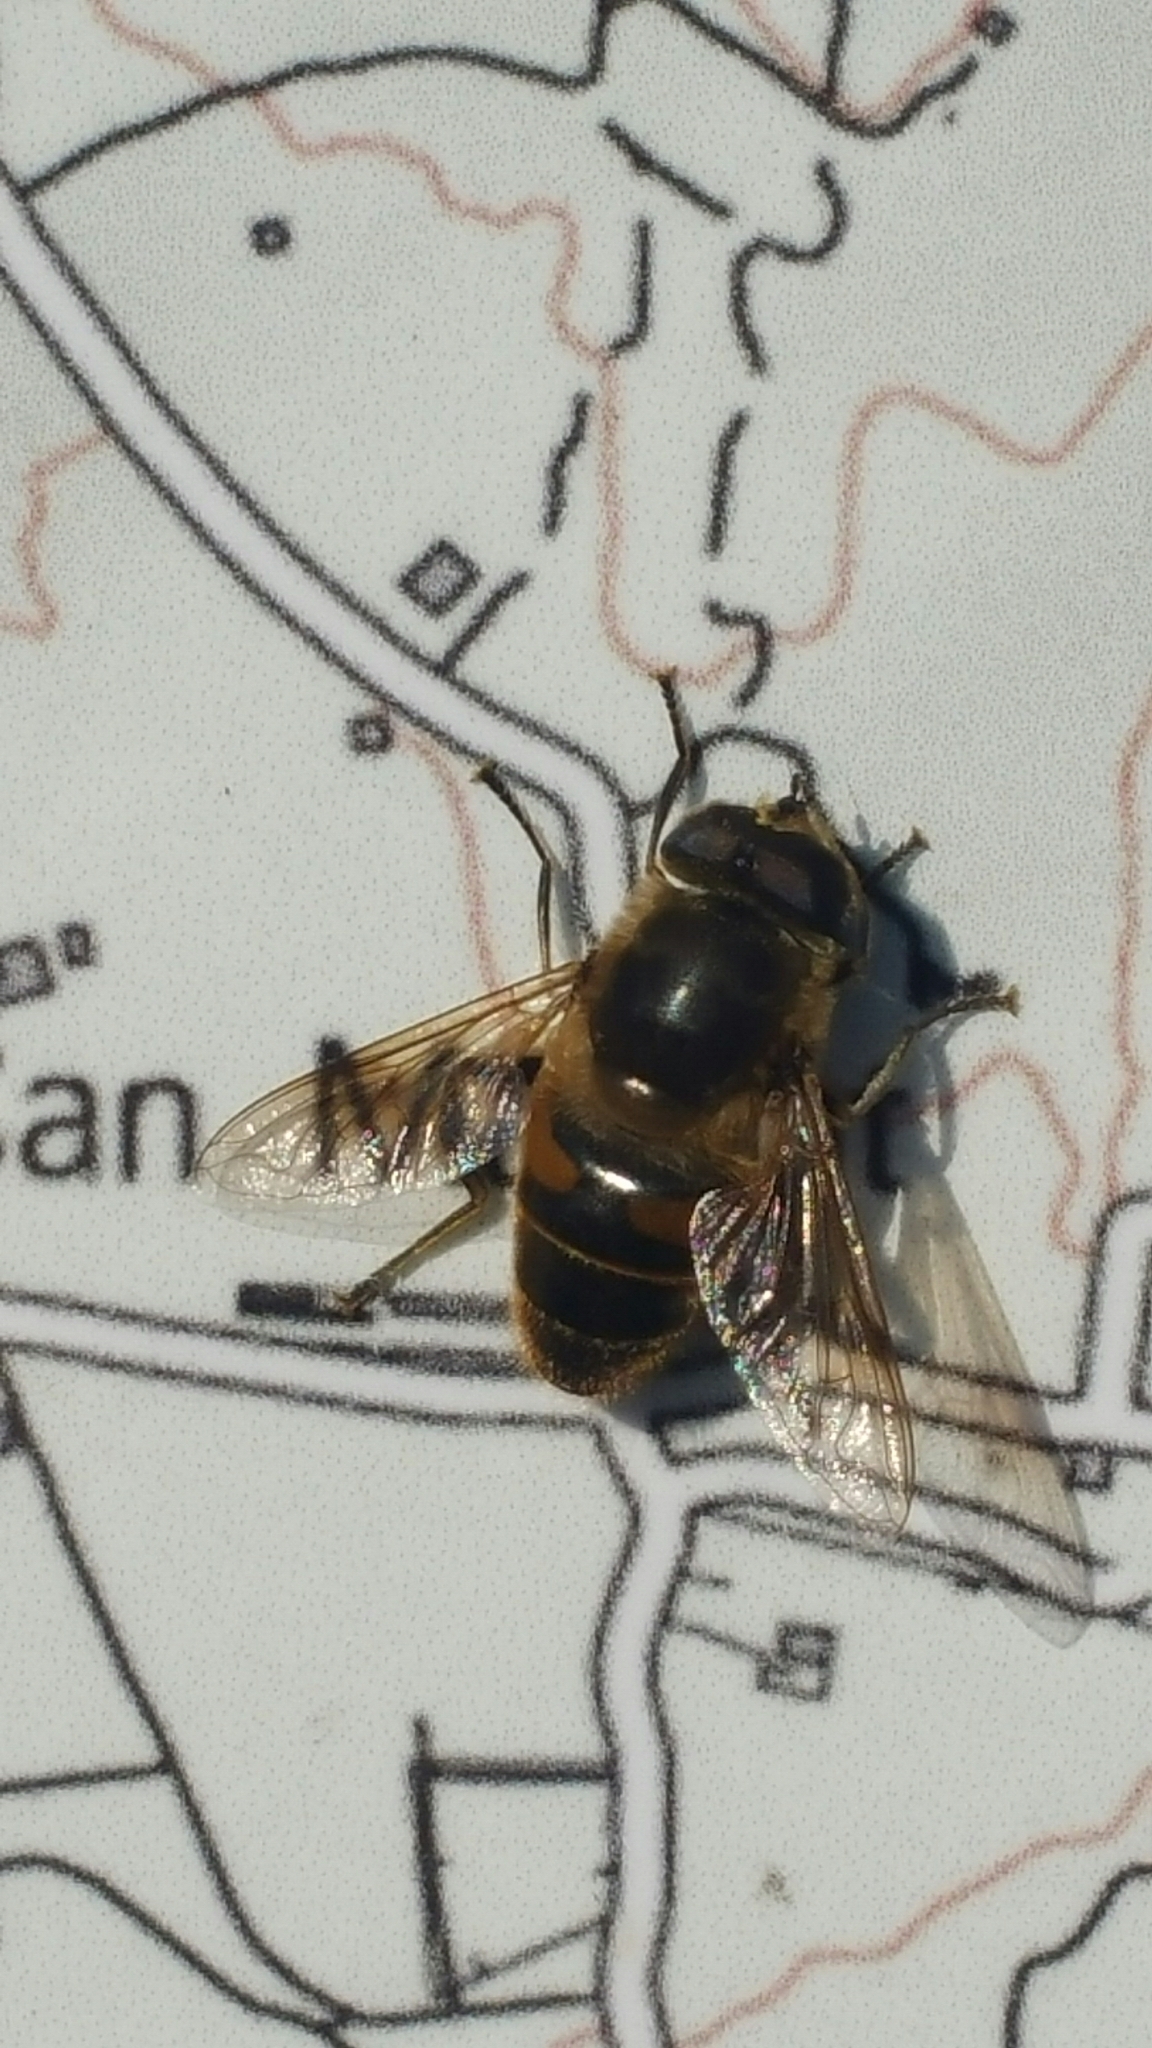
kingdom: Animalia
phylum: Arthropoda
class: Insecta
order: Diptera
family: Syrphidae
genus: Eristalis
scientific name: Eristalis tenax
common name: Drone fly
